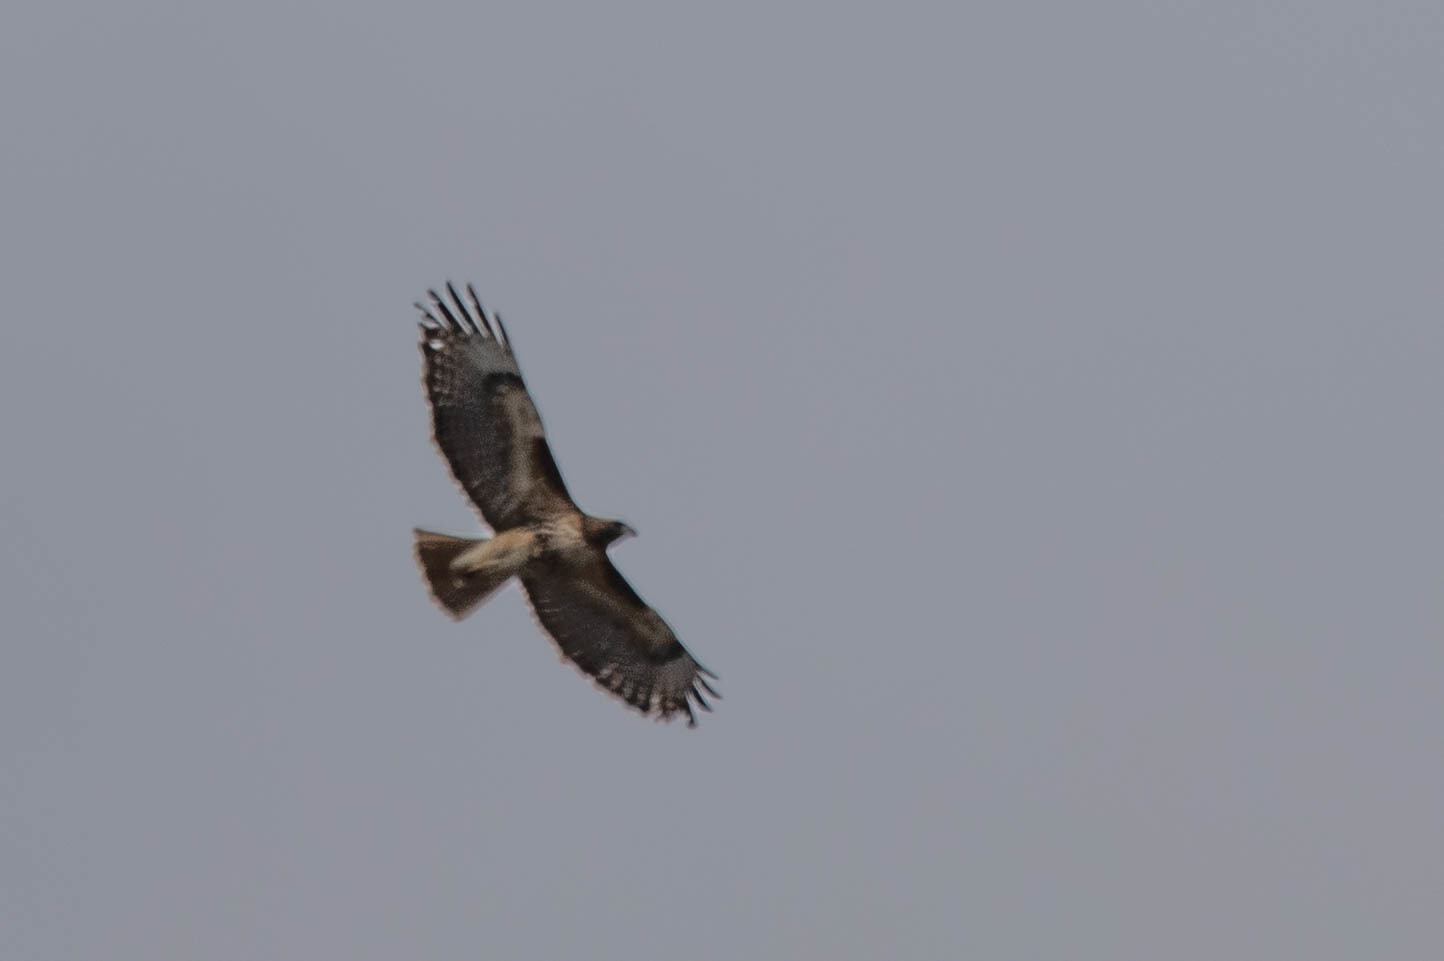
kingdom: Animalia
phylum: Chordata
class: Aves
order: Accipitriformes
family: Accipitridae
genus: Buteo
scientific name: Buteo jamaicensis
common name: Red-tailed hawk
